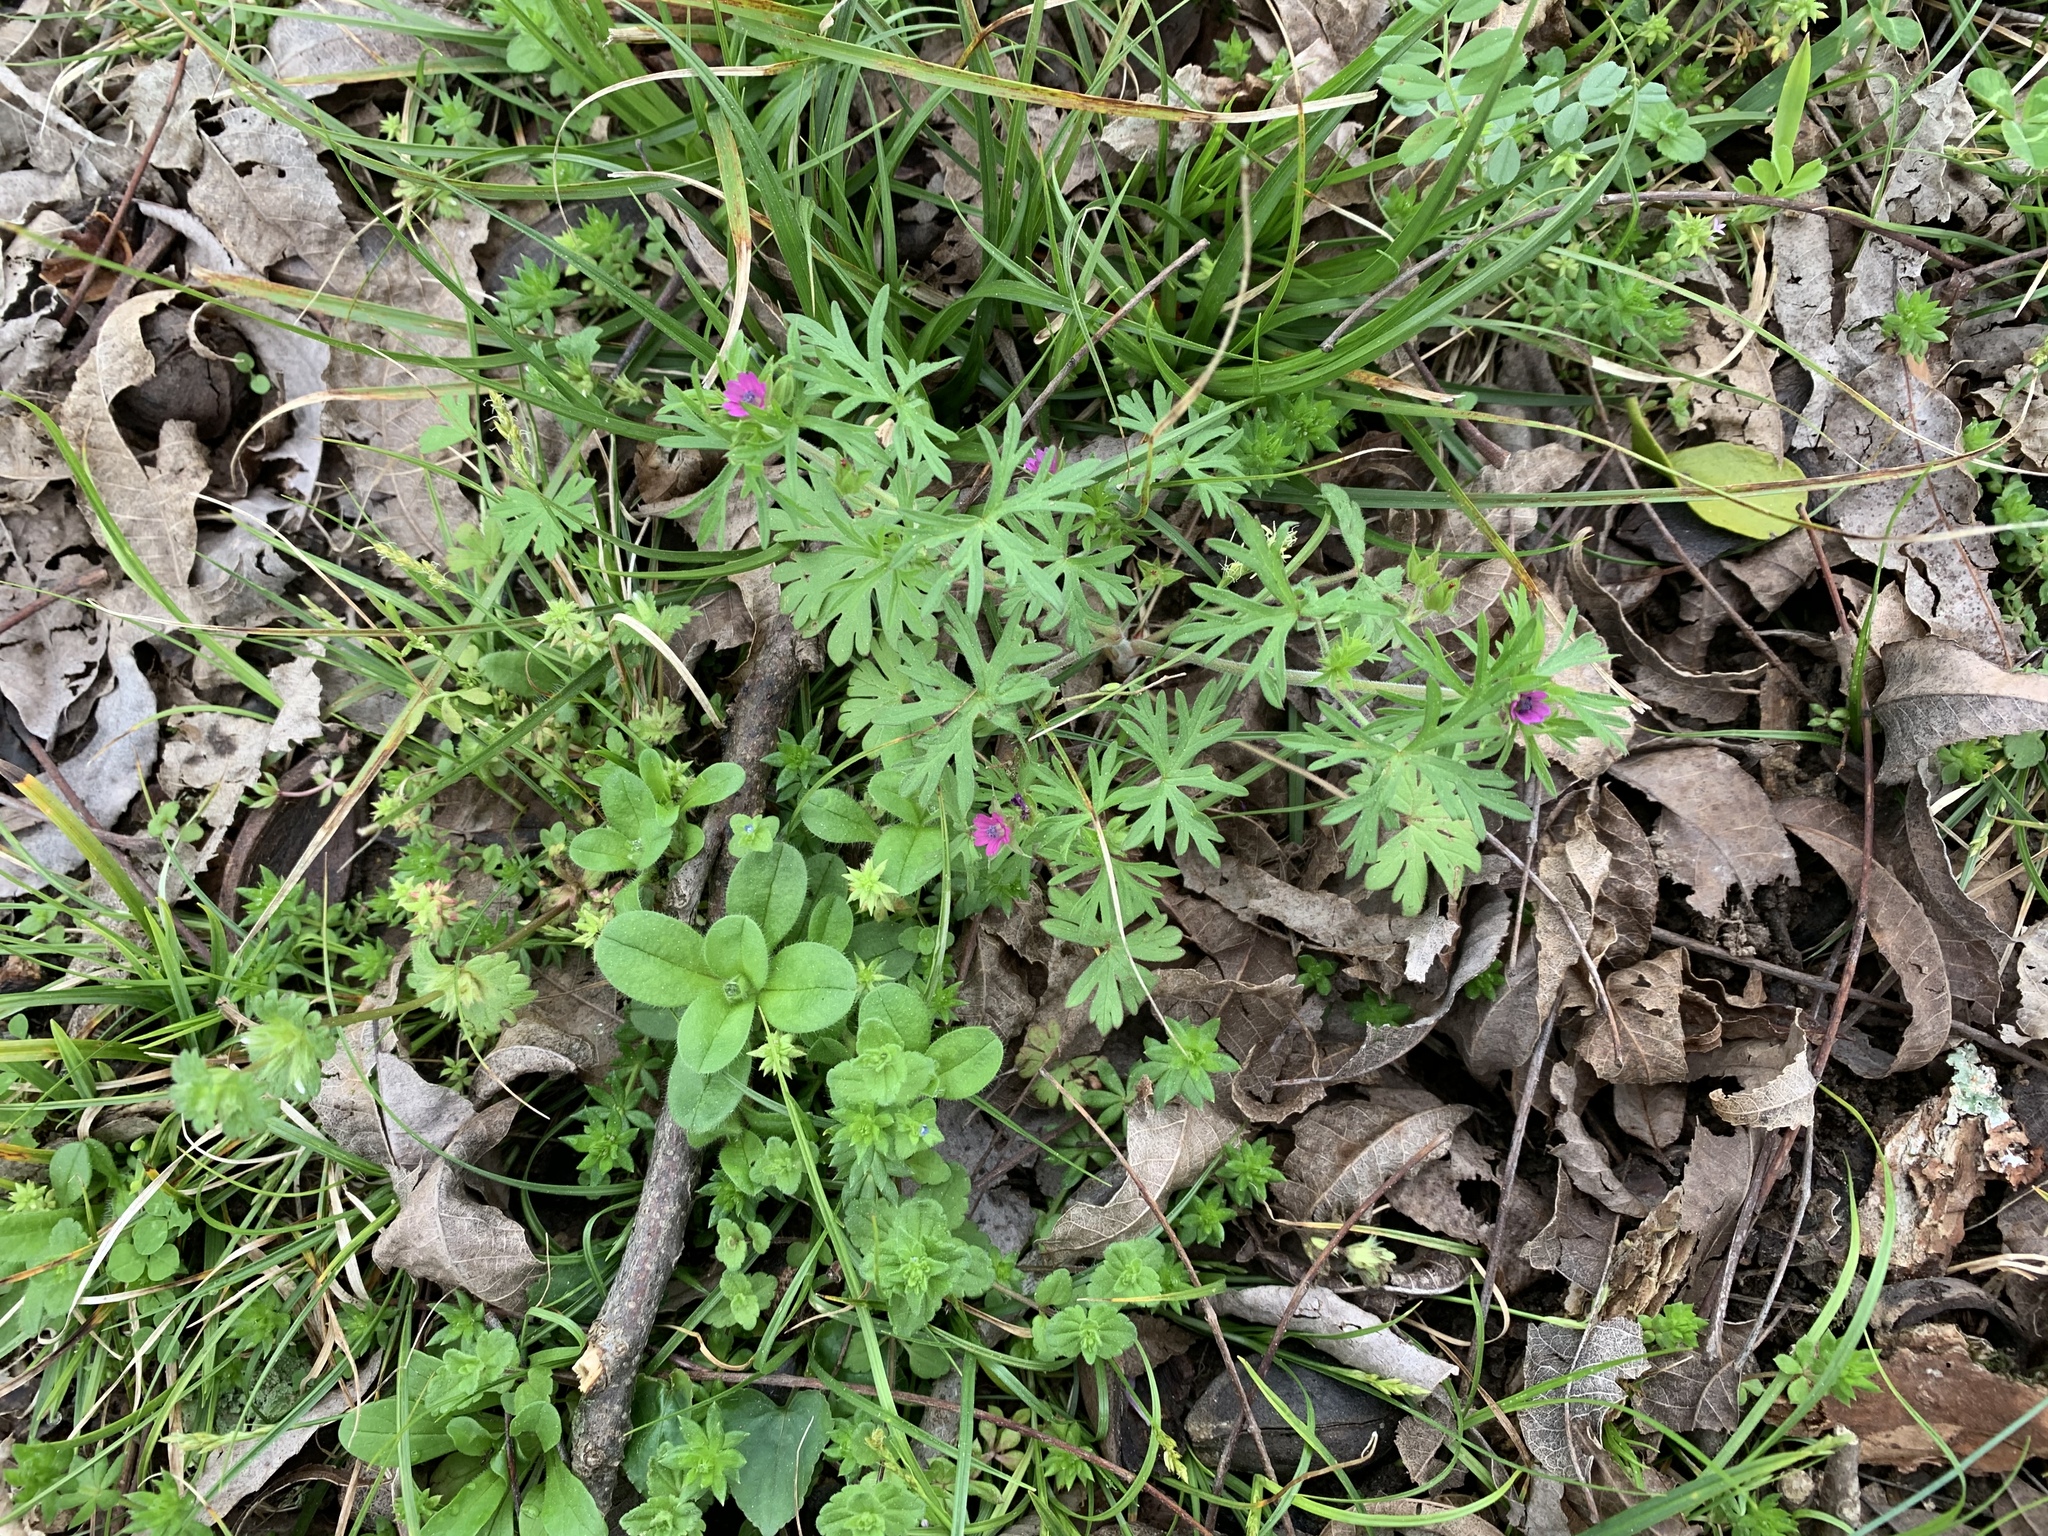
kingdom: Plantae
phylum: Tracheophyta
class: Magnoliopsida
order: Geraniales
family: Geraniaceae
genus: Geranium
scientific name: Geranium dissectum
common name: Cut-leaved crane's-bill
